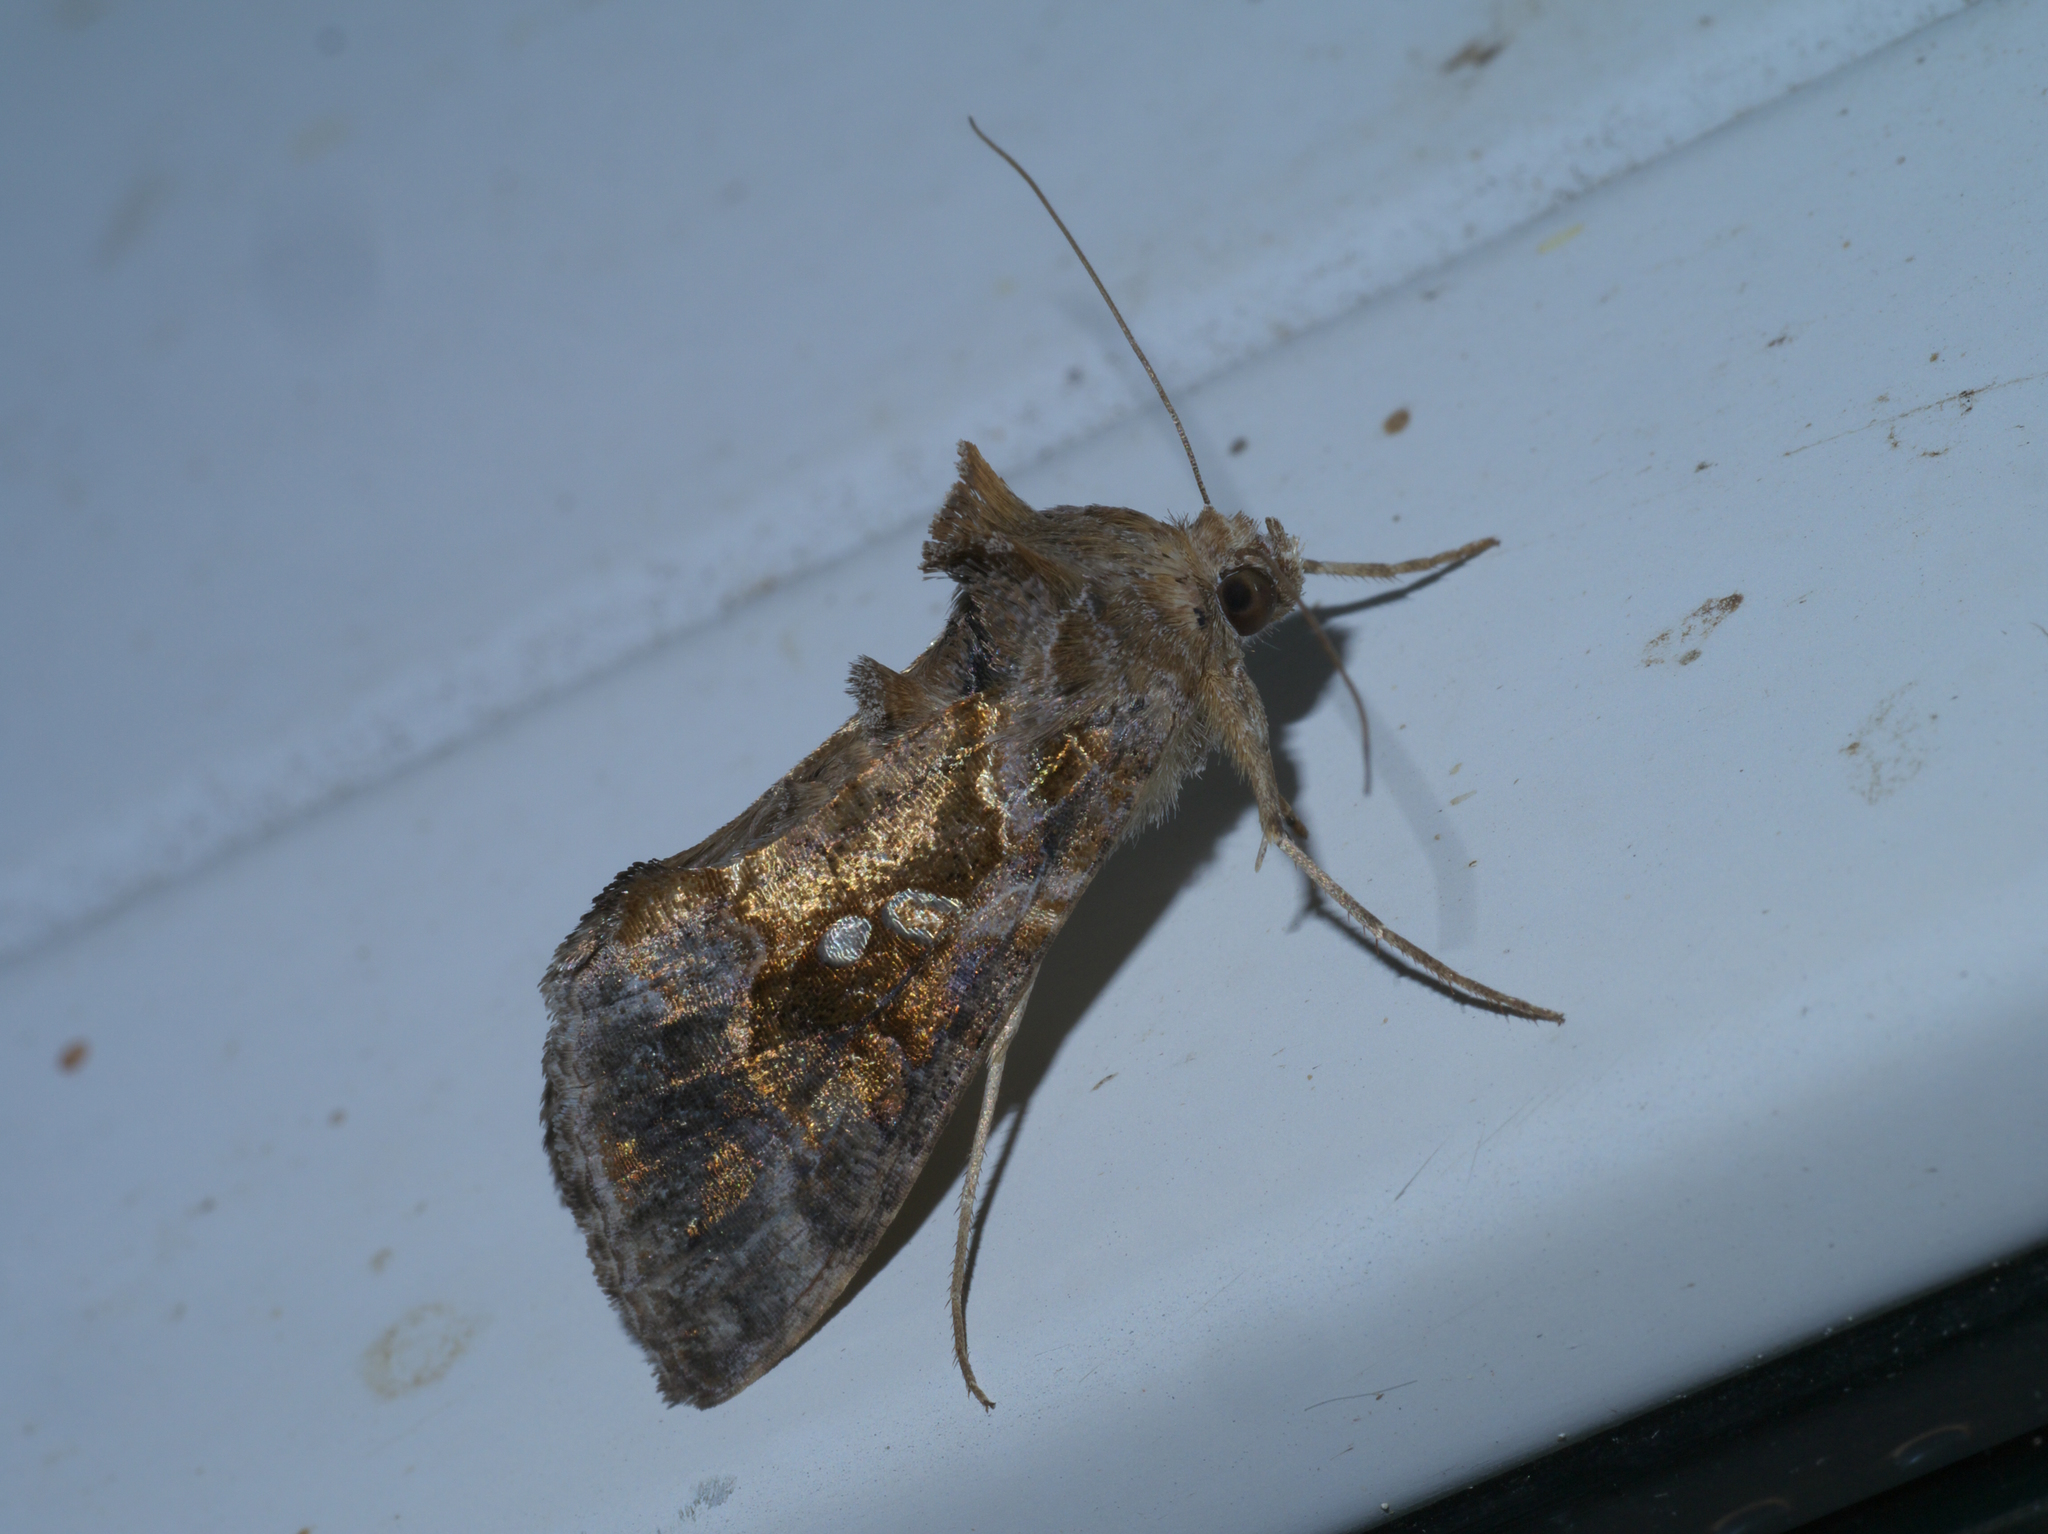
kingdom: Animalia
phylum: Arthropoda
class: Insecta
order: Lepidoptera
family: Noctuidae
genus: Chrysodeixis
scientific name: Chrysodeixis includens
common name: Cutworm moth
